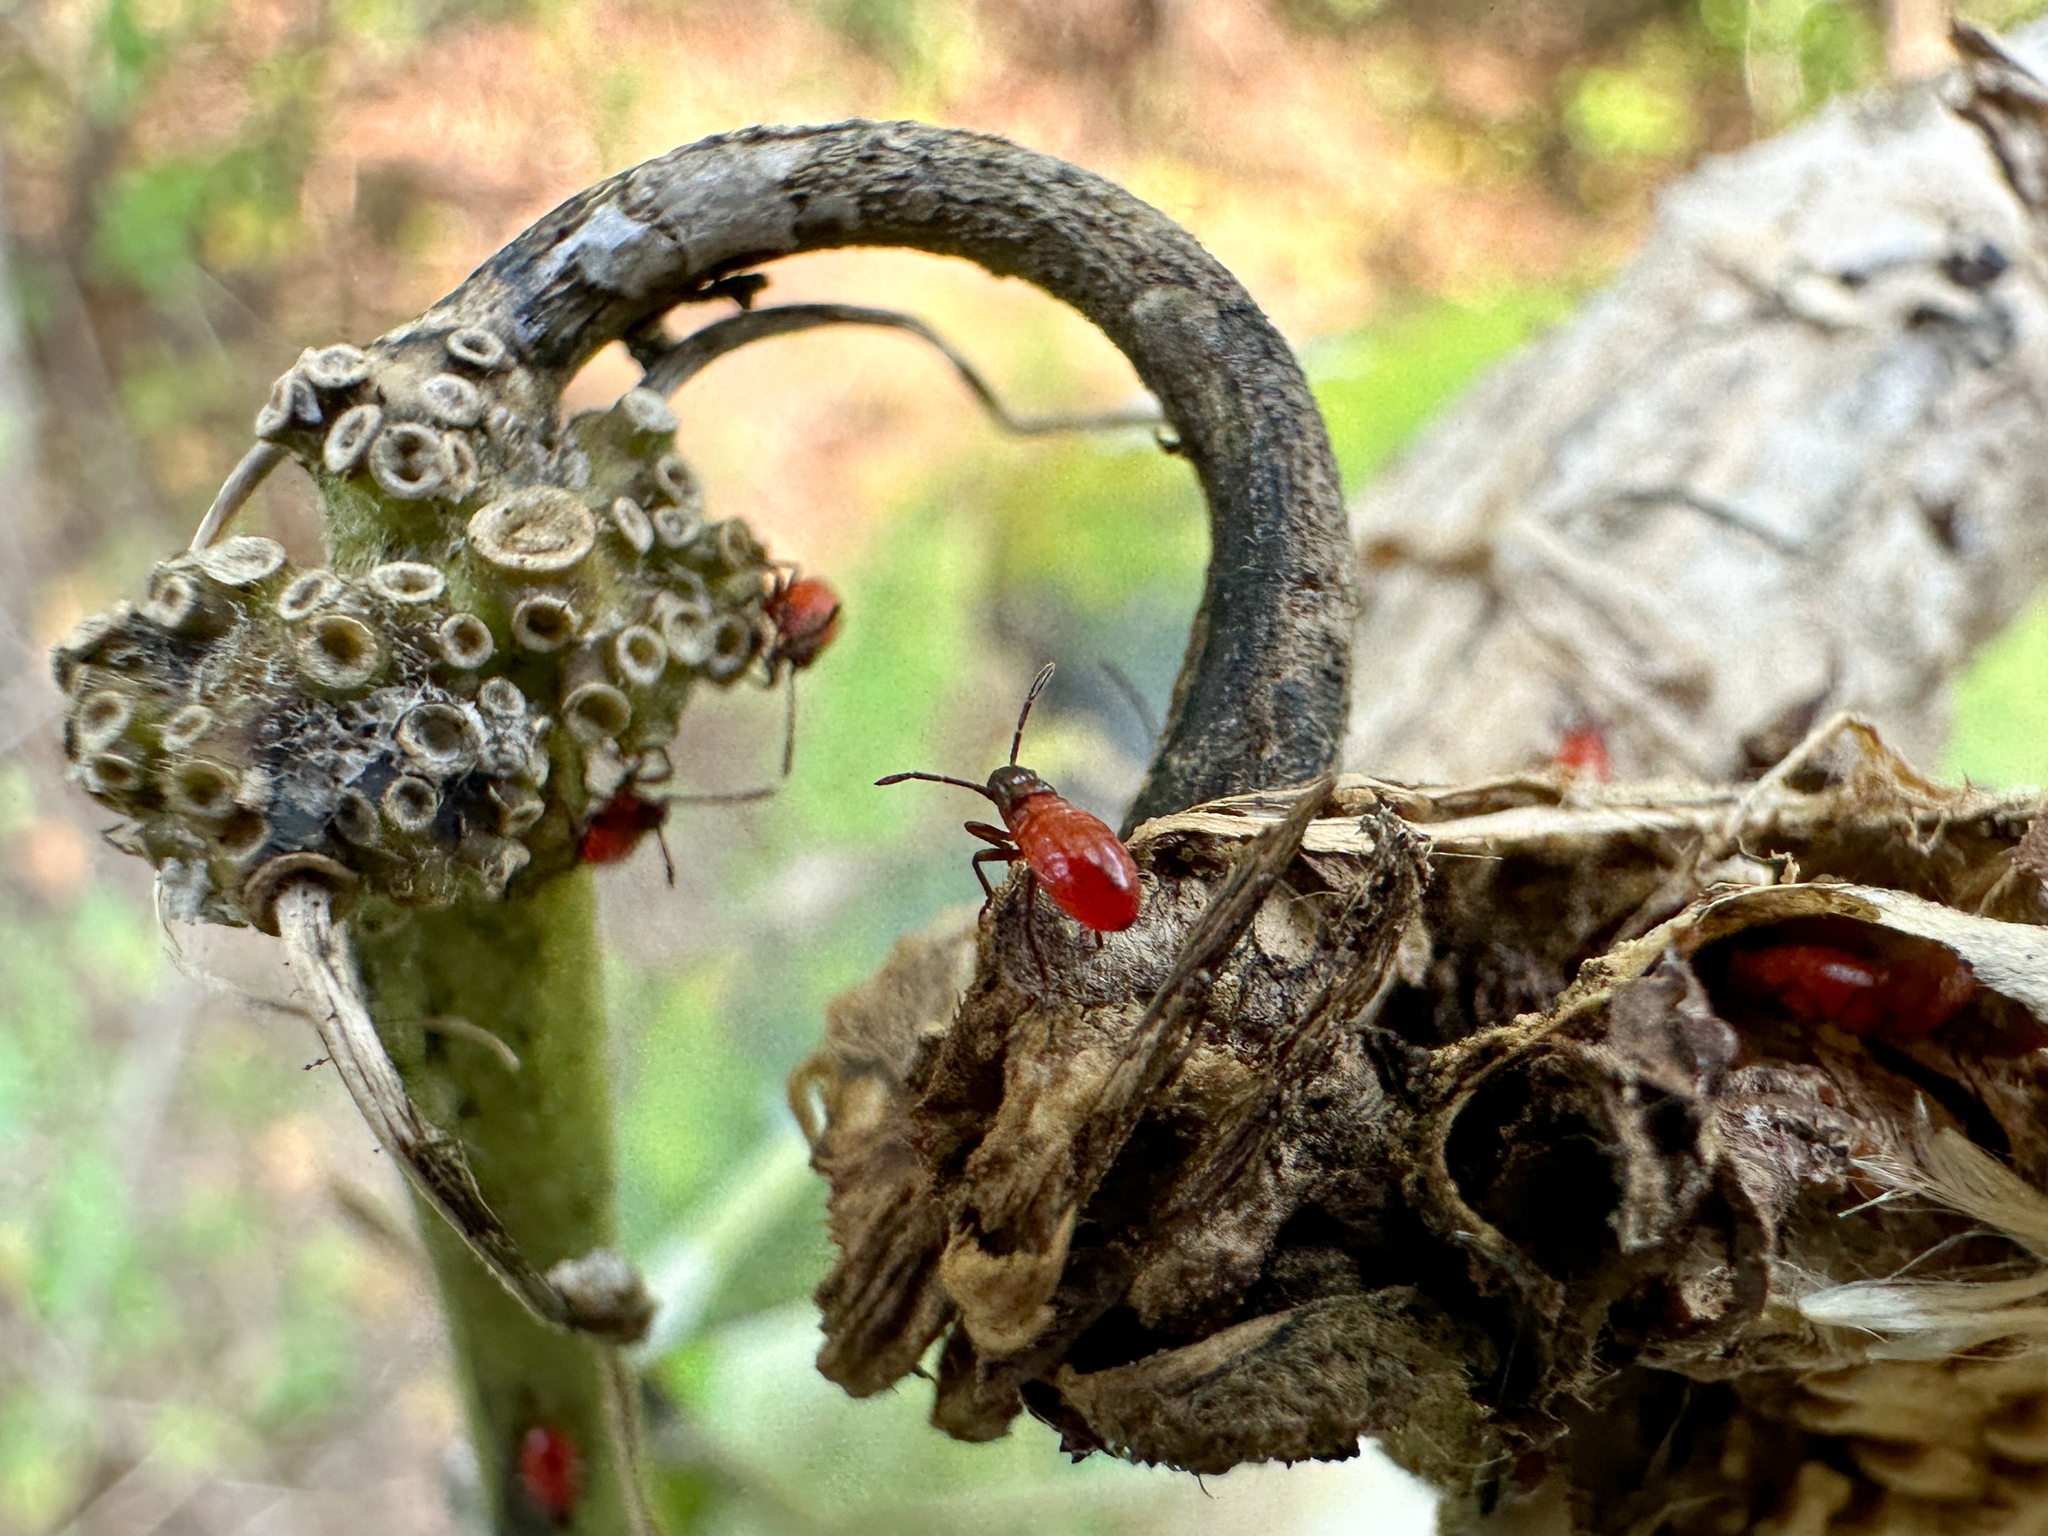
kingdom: Animalia
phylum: Arthropoda
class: Insecta
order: Hemiptera
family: Lygaeidae
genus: Oncopeltus
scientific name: Oncopeltus fasciatus
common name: Large milkweed bug
